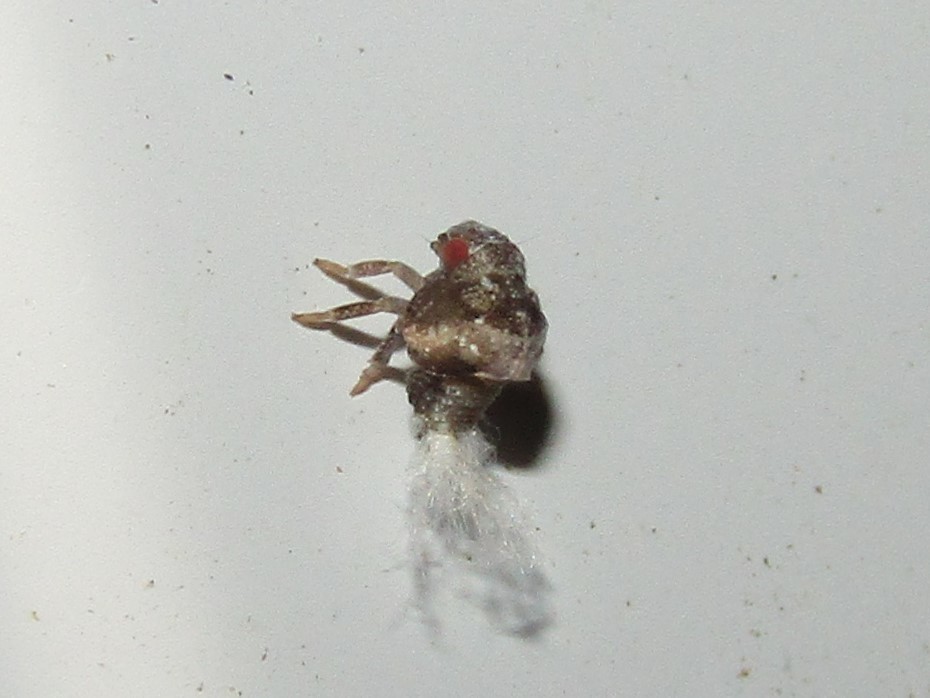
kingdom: Animalia
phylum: Arthropoda
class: Insecta
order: Hemiptera
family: Acanaloniidae
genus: Acanalonia
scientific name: Acanalonia bivittata
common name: Two-striped planthopper
